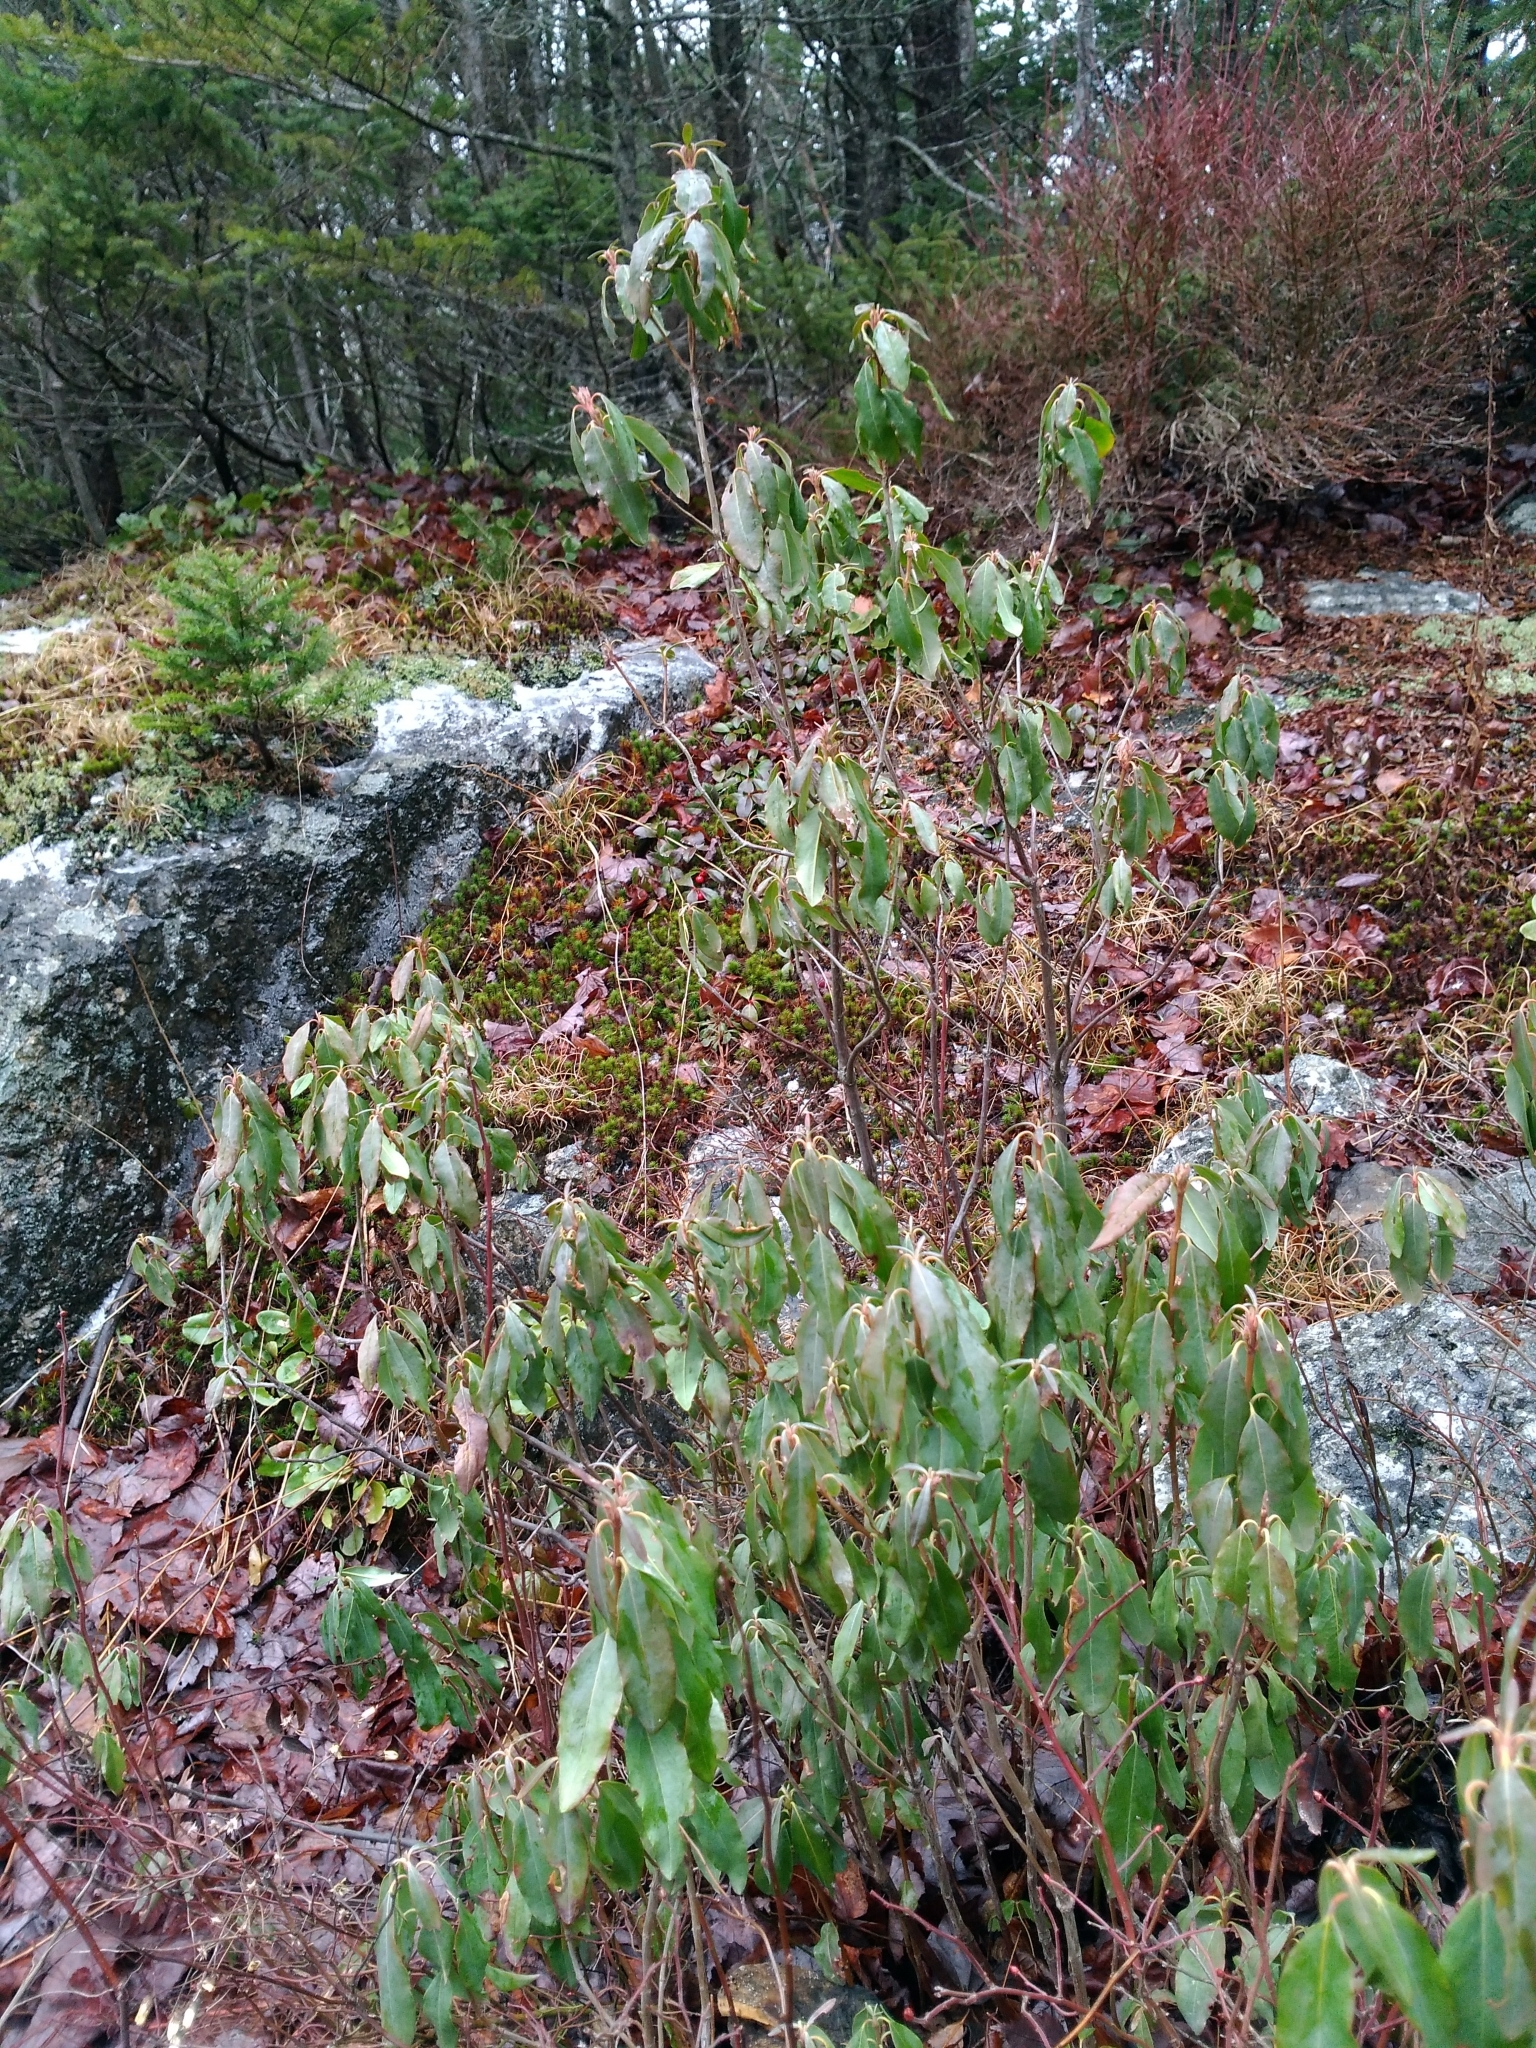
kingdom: Plantae
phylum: Tracheophyta
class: Magnoliopsida
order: Ericales
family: Ericaceae
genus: Kalmia
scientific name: Kalmia angustifolia
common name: Sheep-laurel
